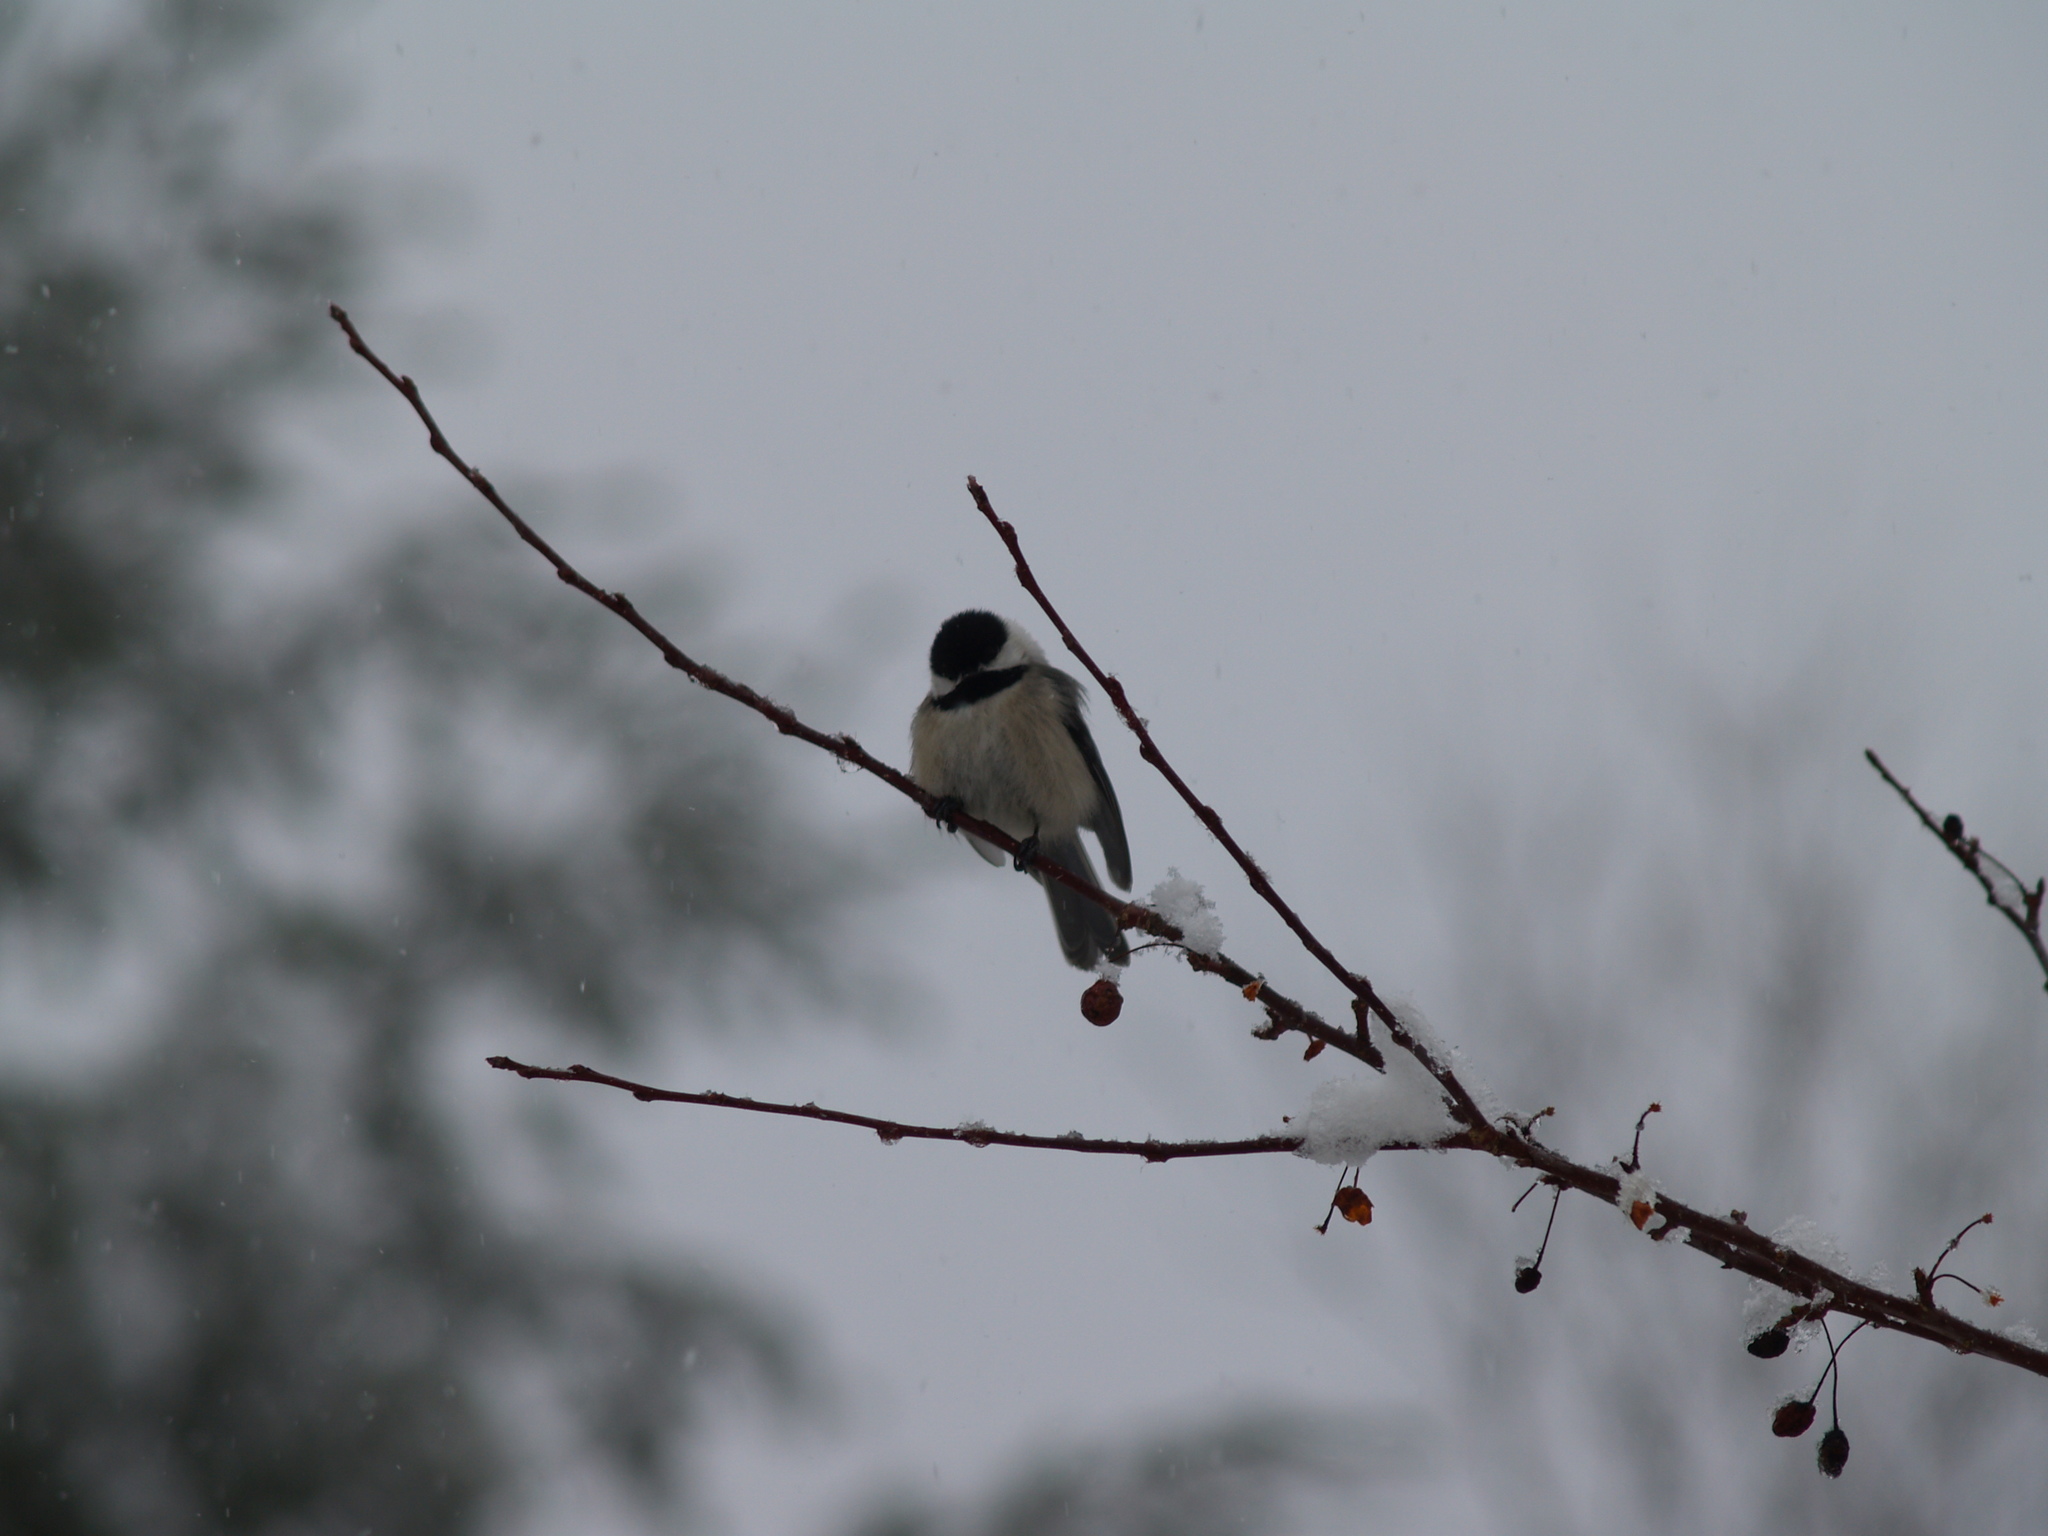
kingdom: Animalia
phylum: Chordata
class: Aves
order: Passeriformes
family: Paridae
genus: Poecile
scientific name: Poecile atricapillus
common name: Black-capped chickadee
